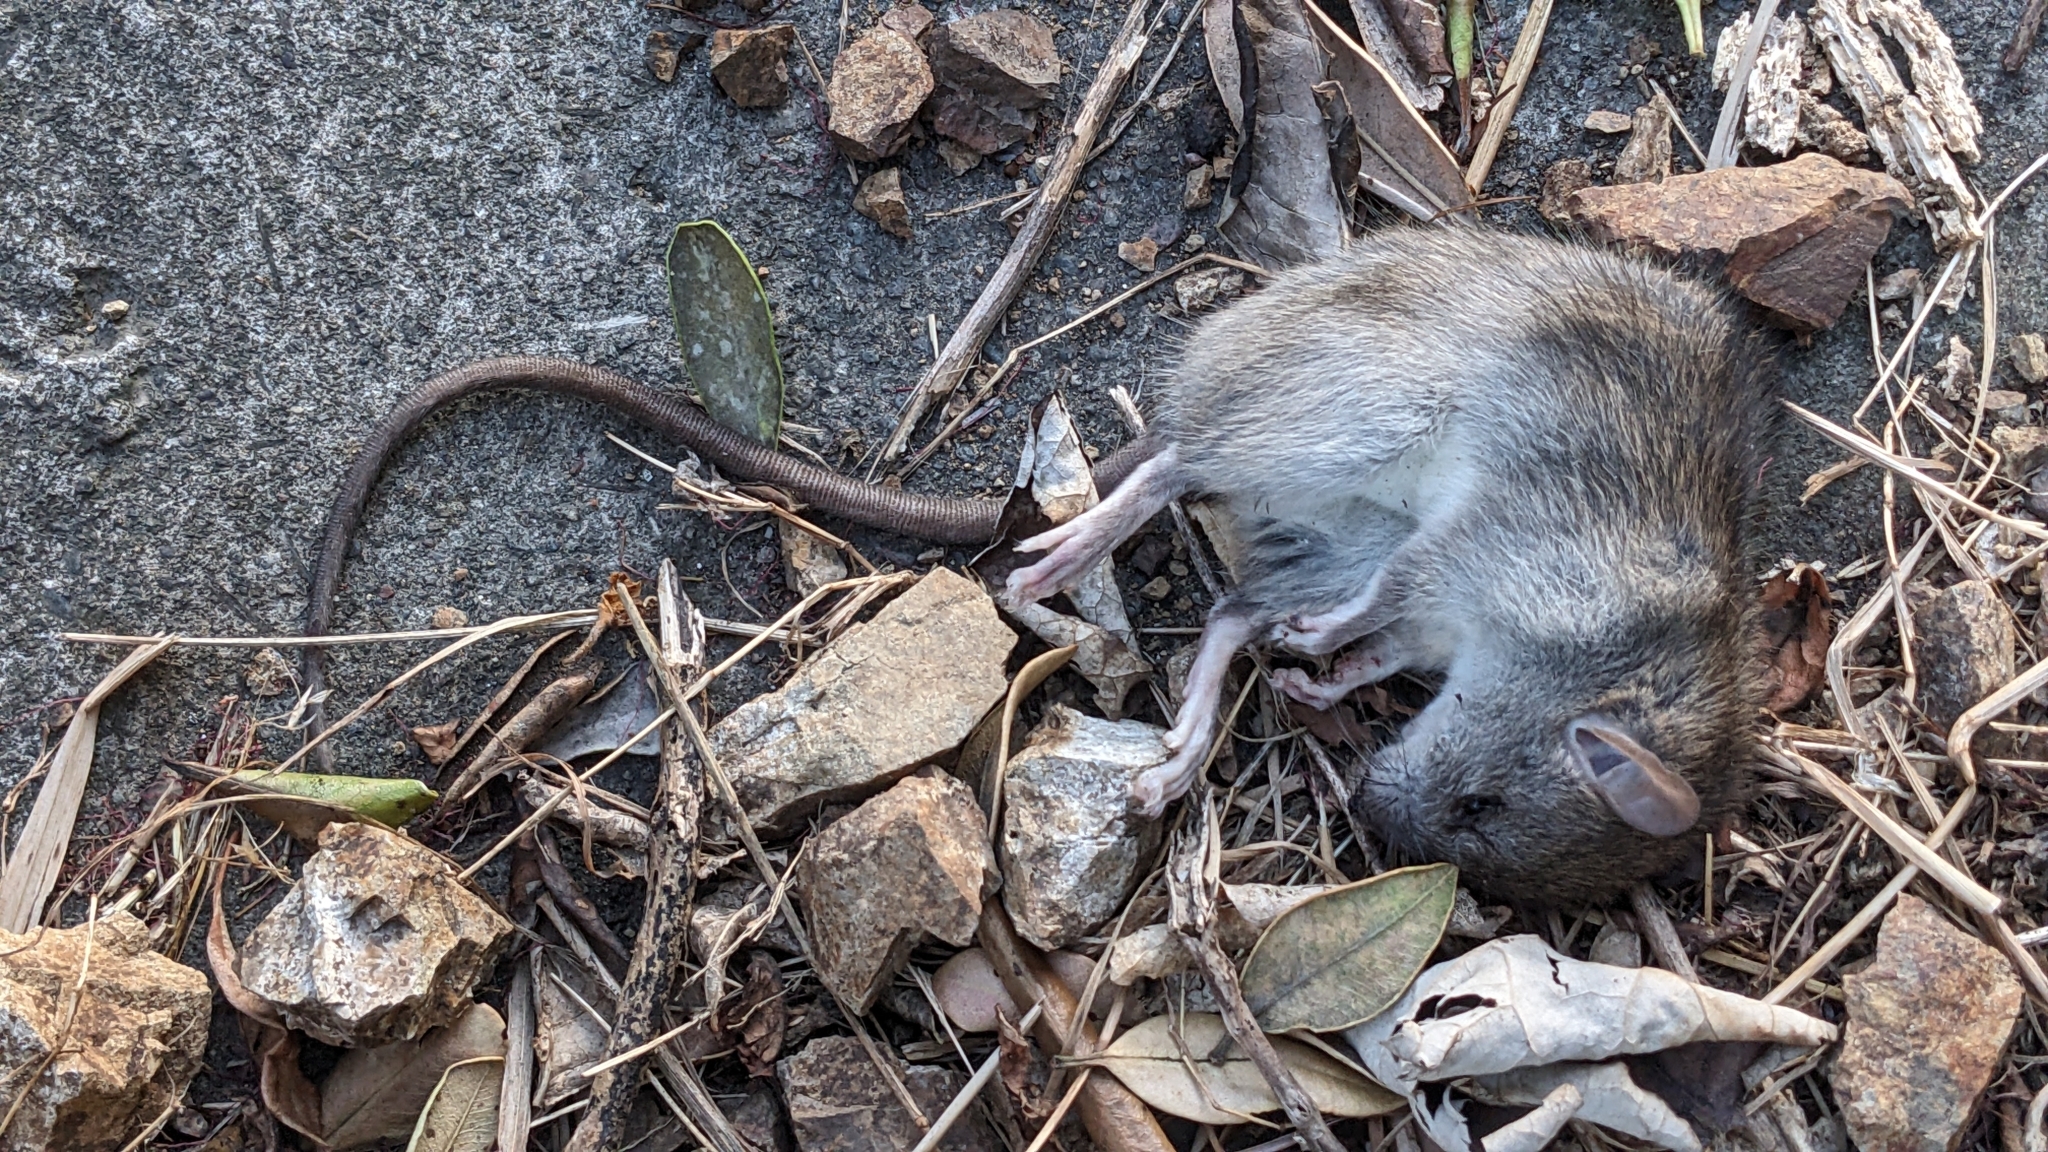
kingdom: Animalia
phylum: Chordata
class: Mammalia
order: Rodentia
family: Muridae
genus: Rattus
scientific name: Rattus rattus
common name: Black rat
